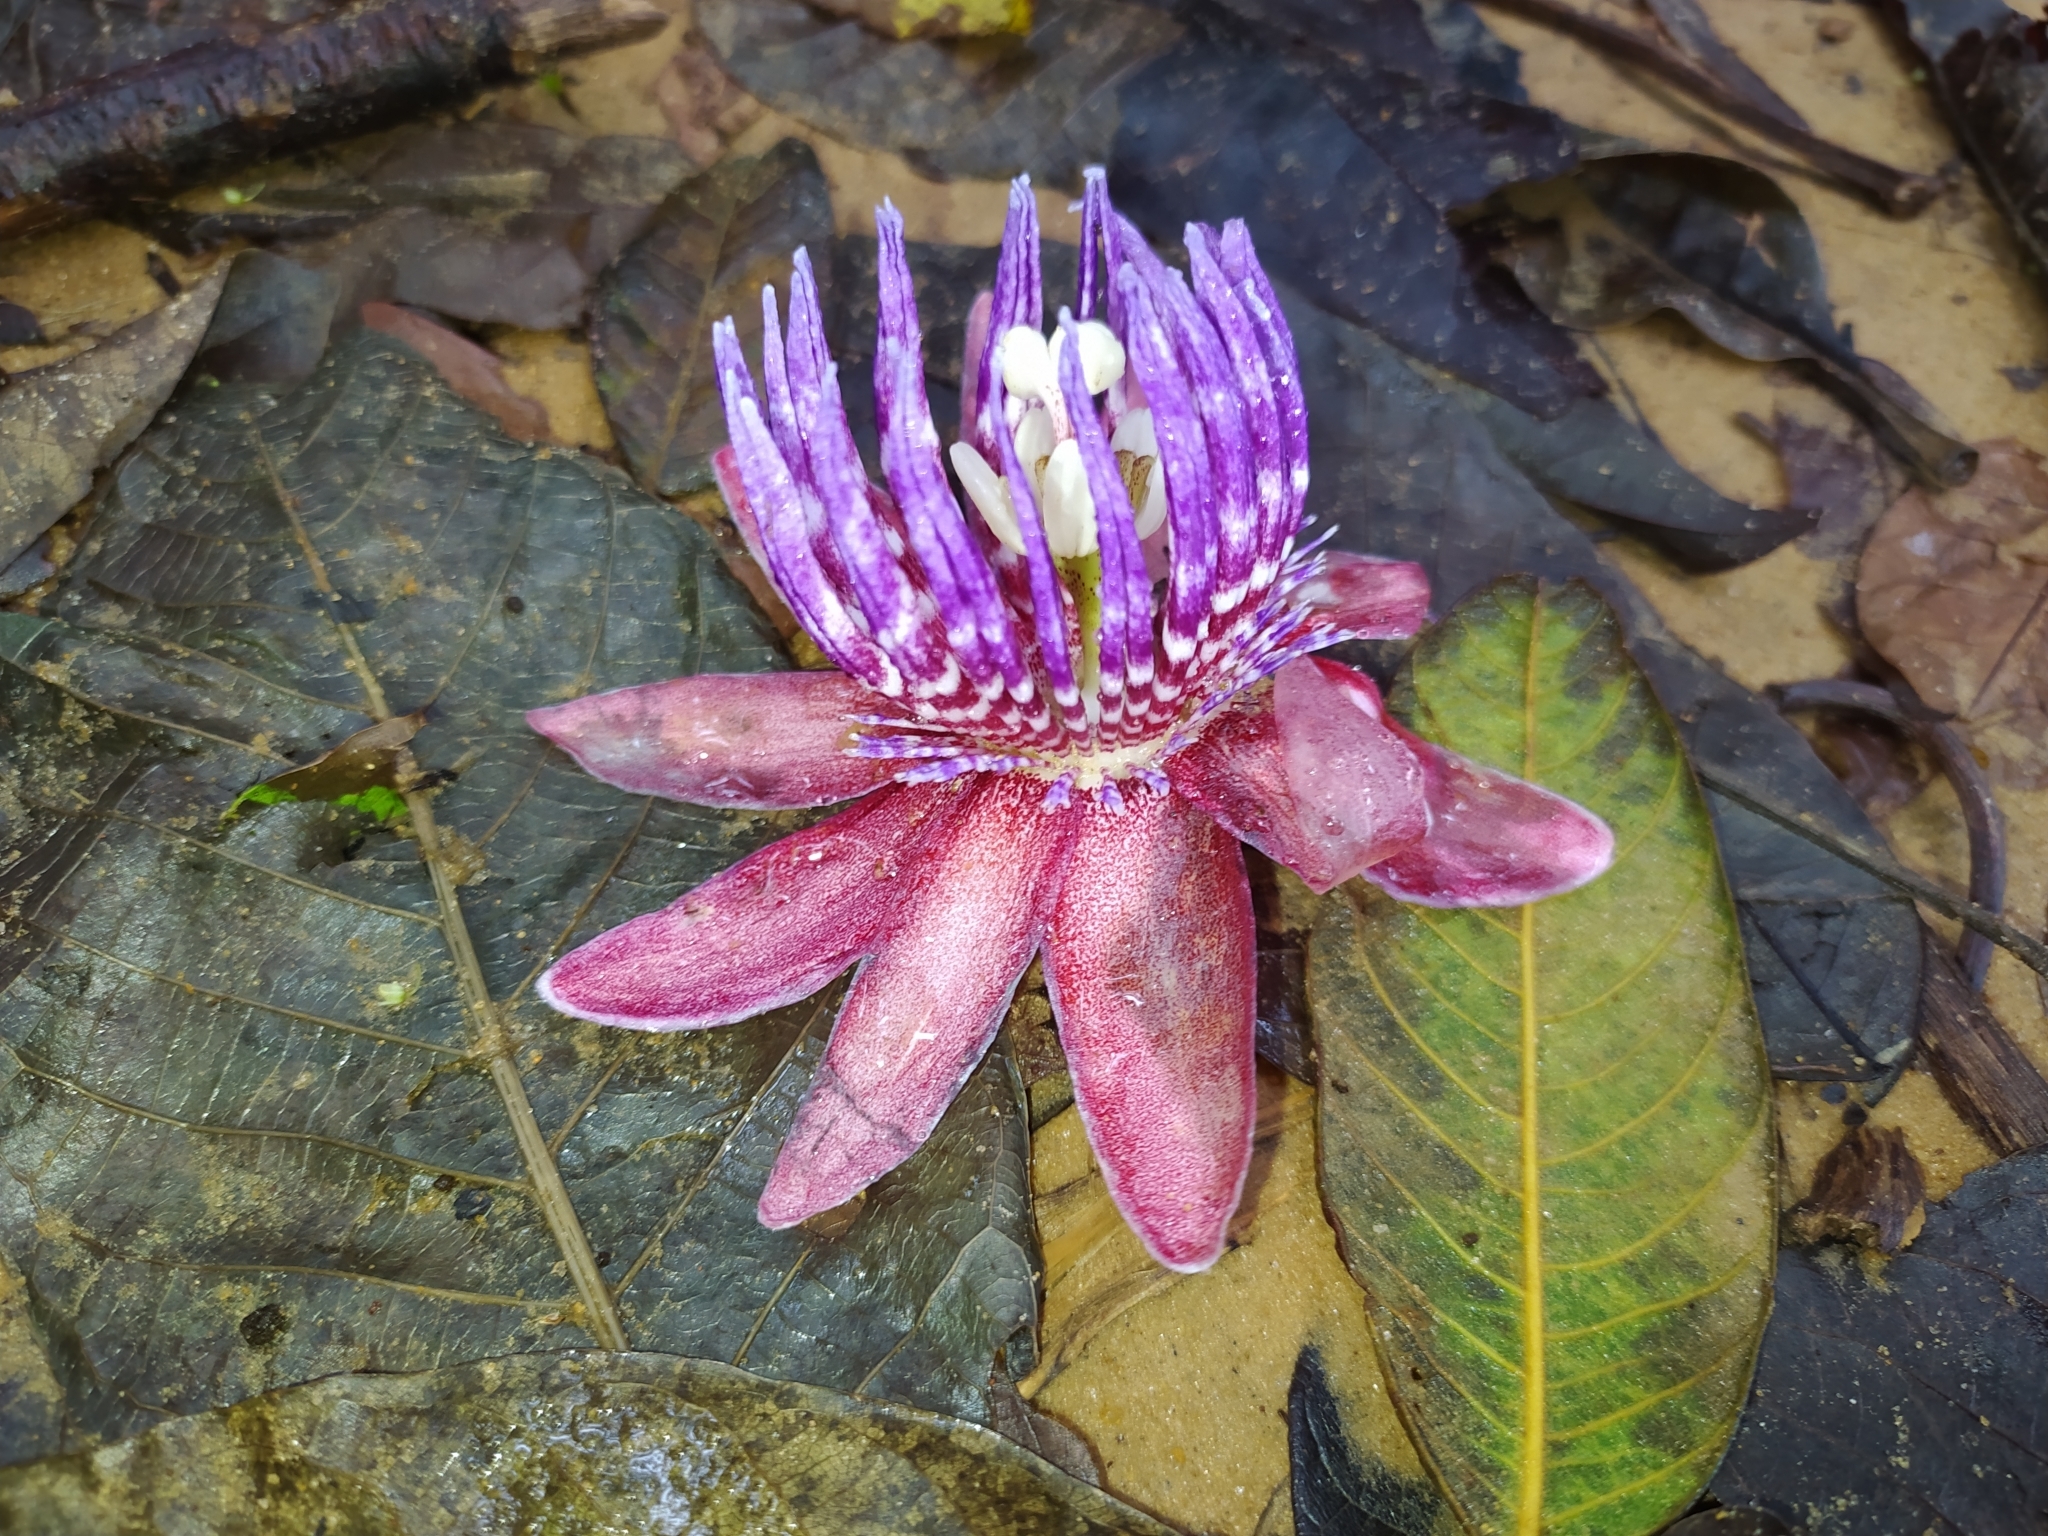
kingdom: Plantae
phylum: Tracheophyta
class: Magnoliopsida
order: Malpighiales
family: Passifloraceae
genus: Passiflora
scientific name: Passiflora gabrielliana
